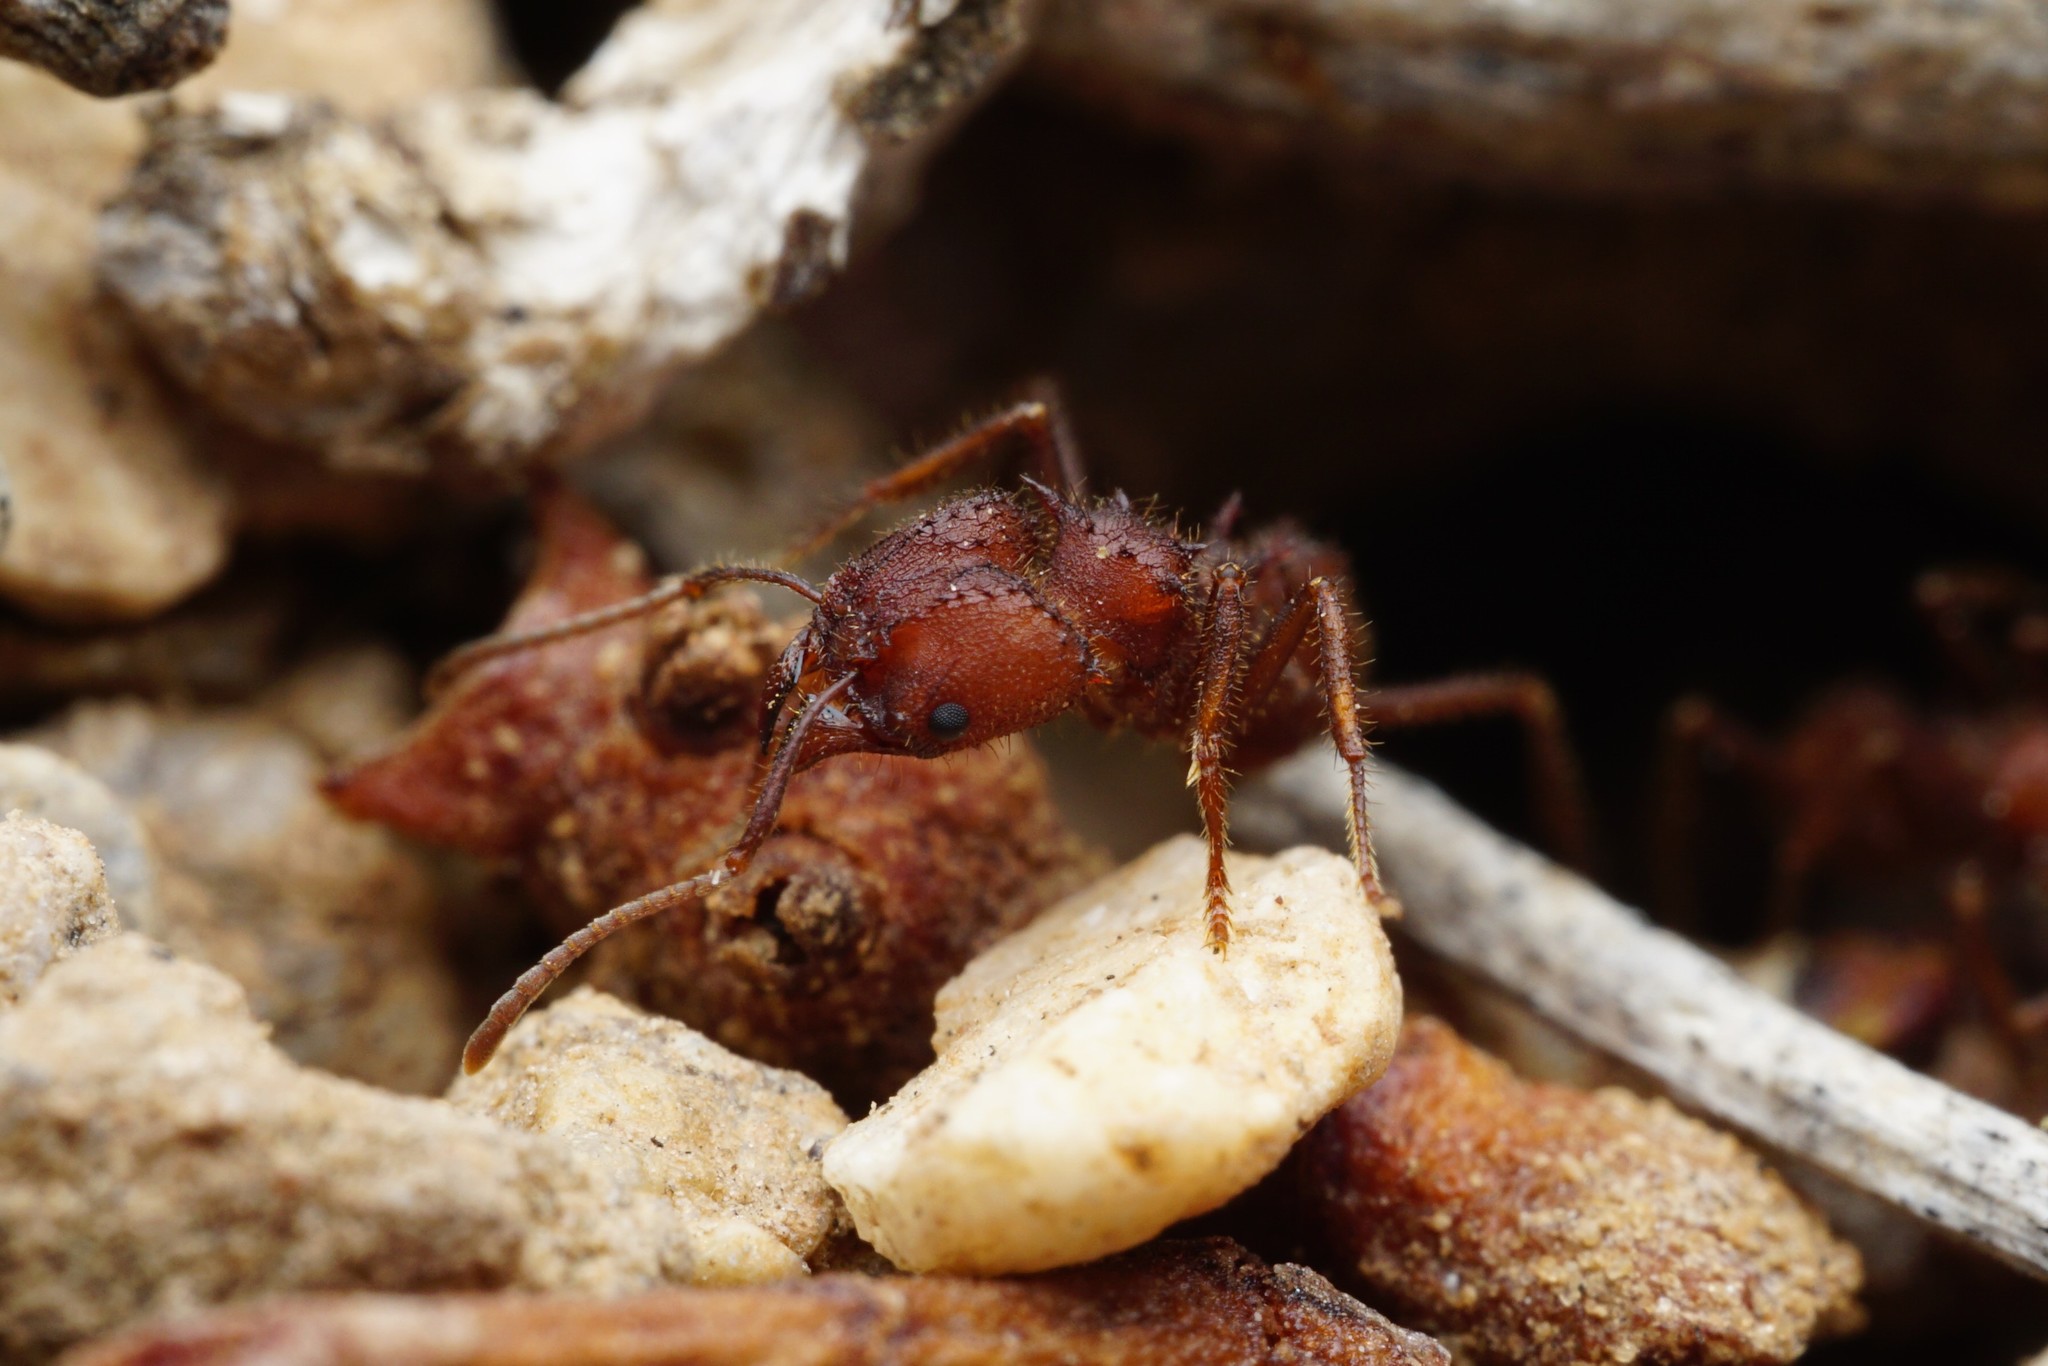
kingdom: Animalia
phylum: Arthropoda
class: Insecta
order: Hymenoptera
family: Formicidae
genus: Acromyrmex
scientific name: Acromyrmex versicolor
